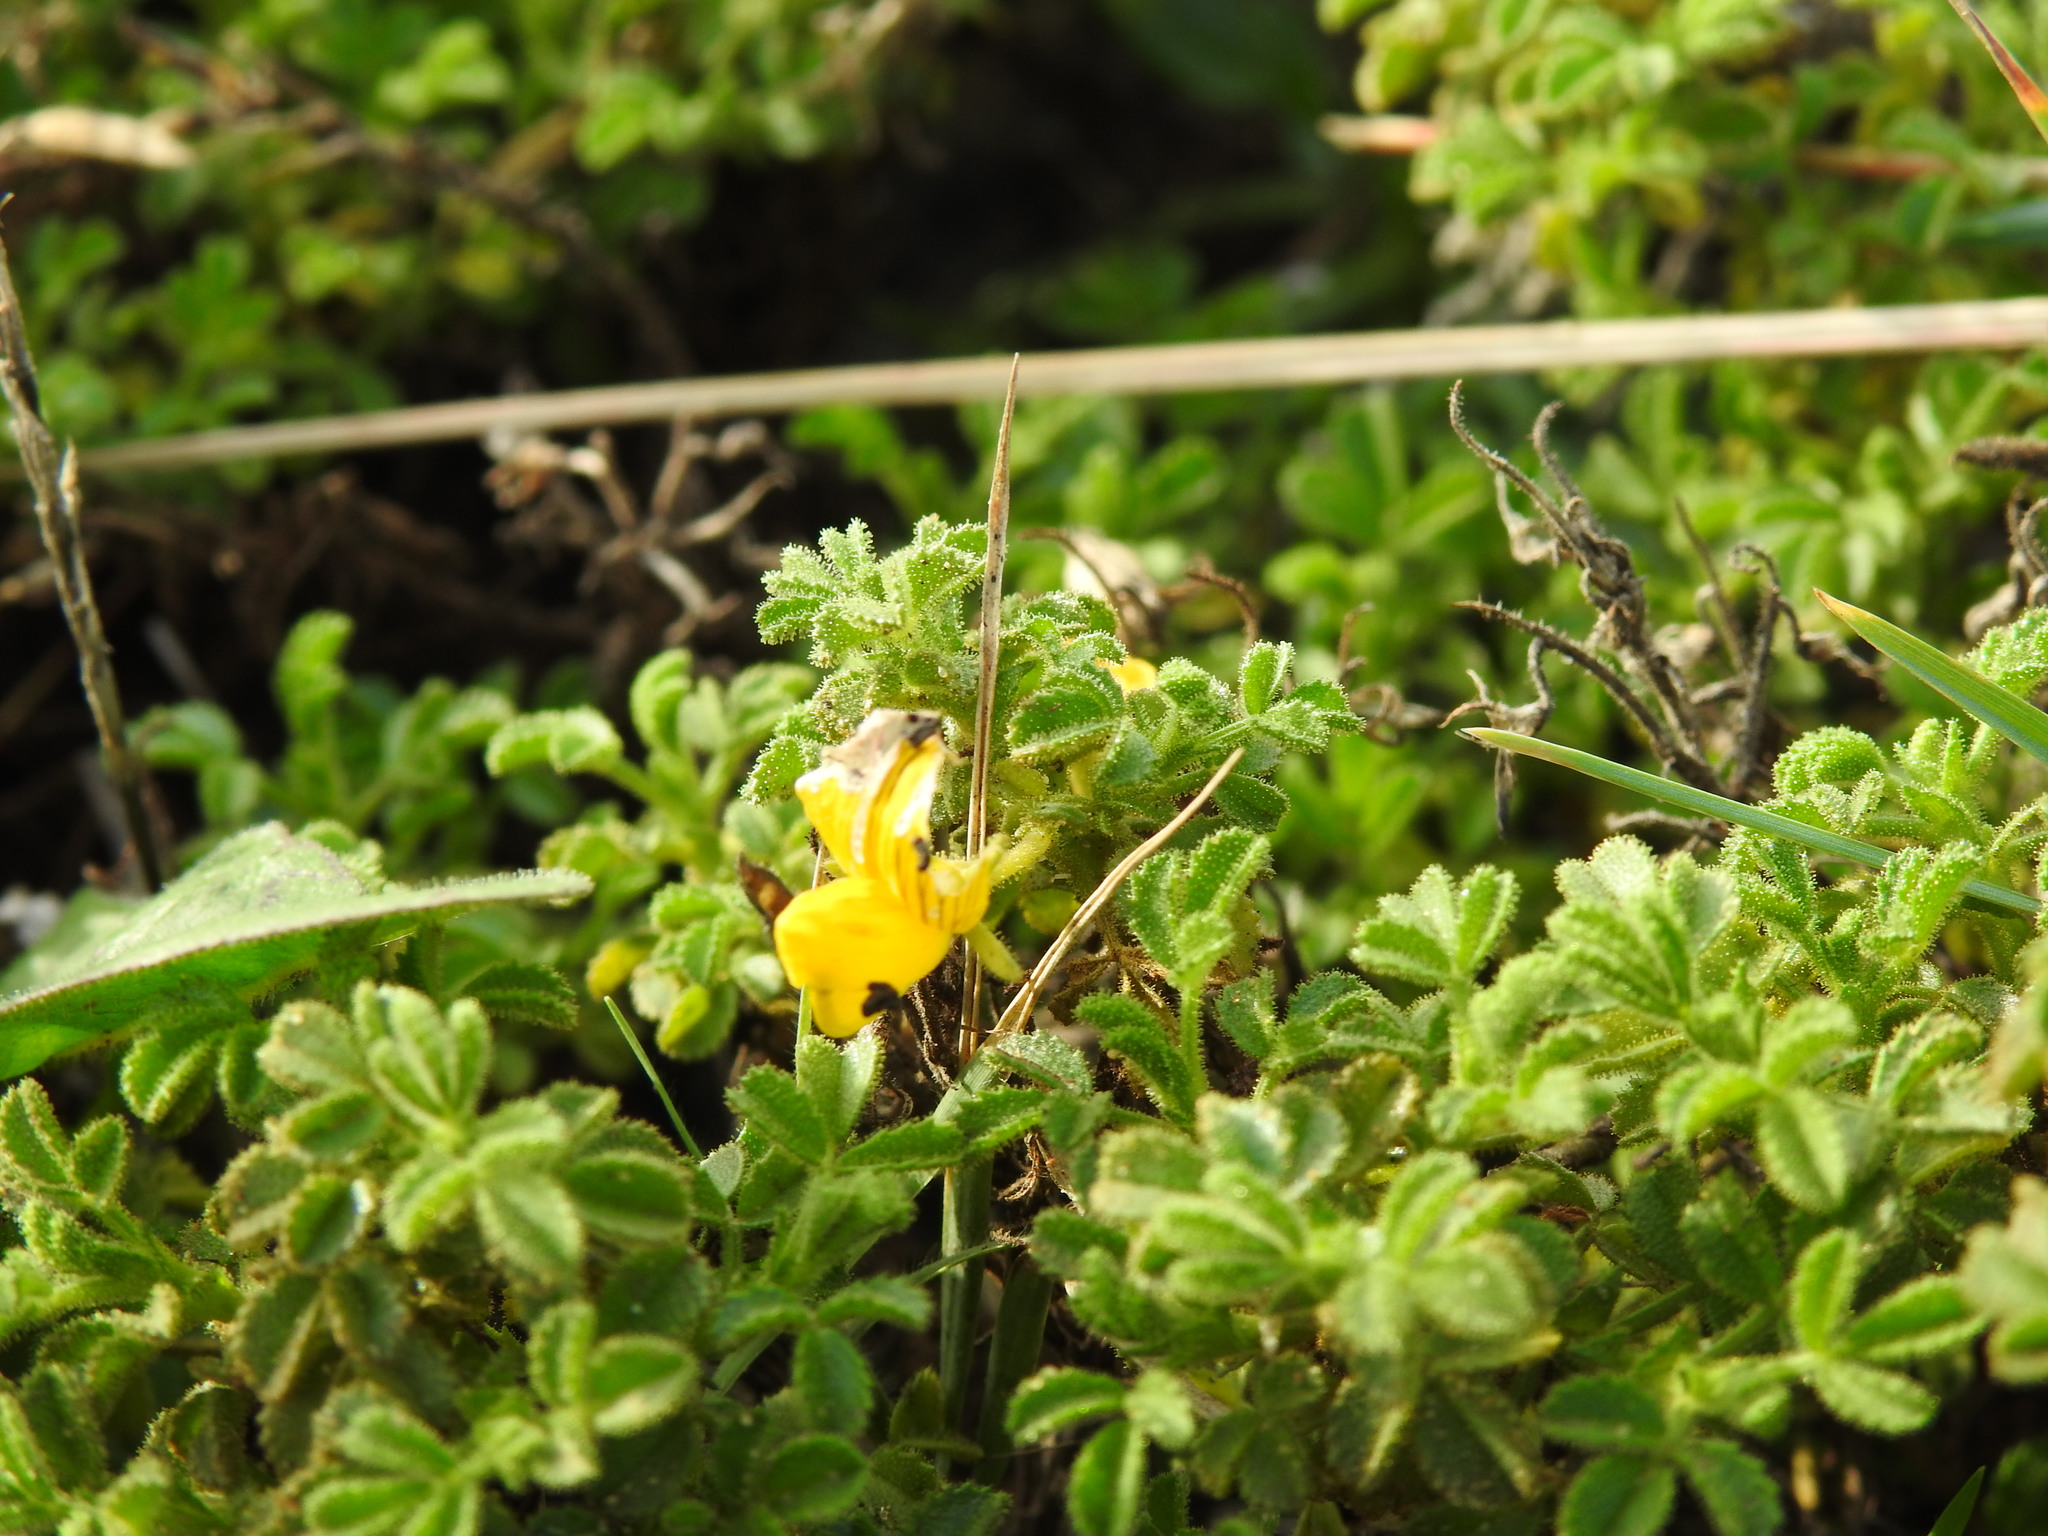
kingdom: Plantae
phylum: Tracheophyta
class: Magnoliopsida
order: Fabales
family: Fabaceae
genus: Ononis
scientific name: Ononis ramosissima
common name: Bush restharrow
